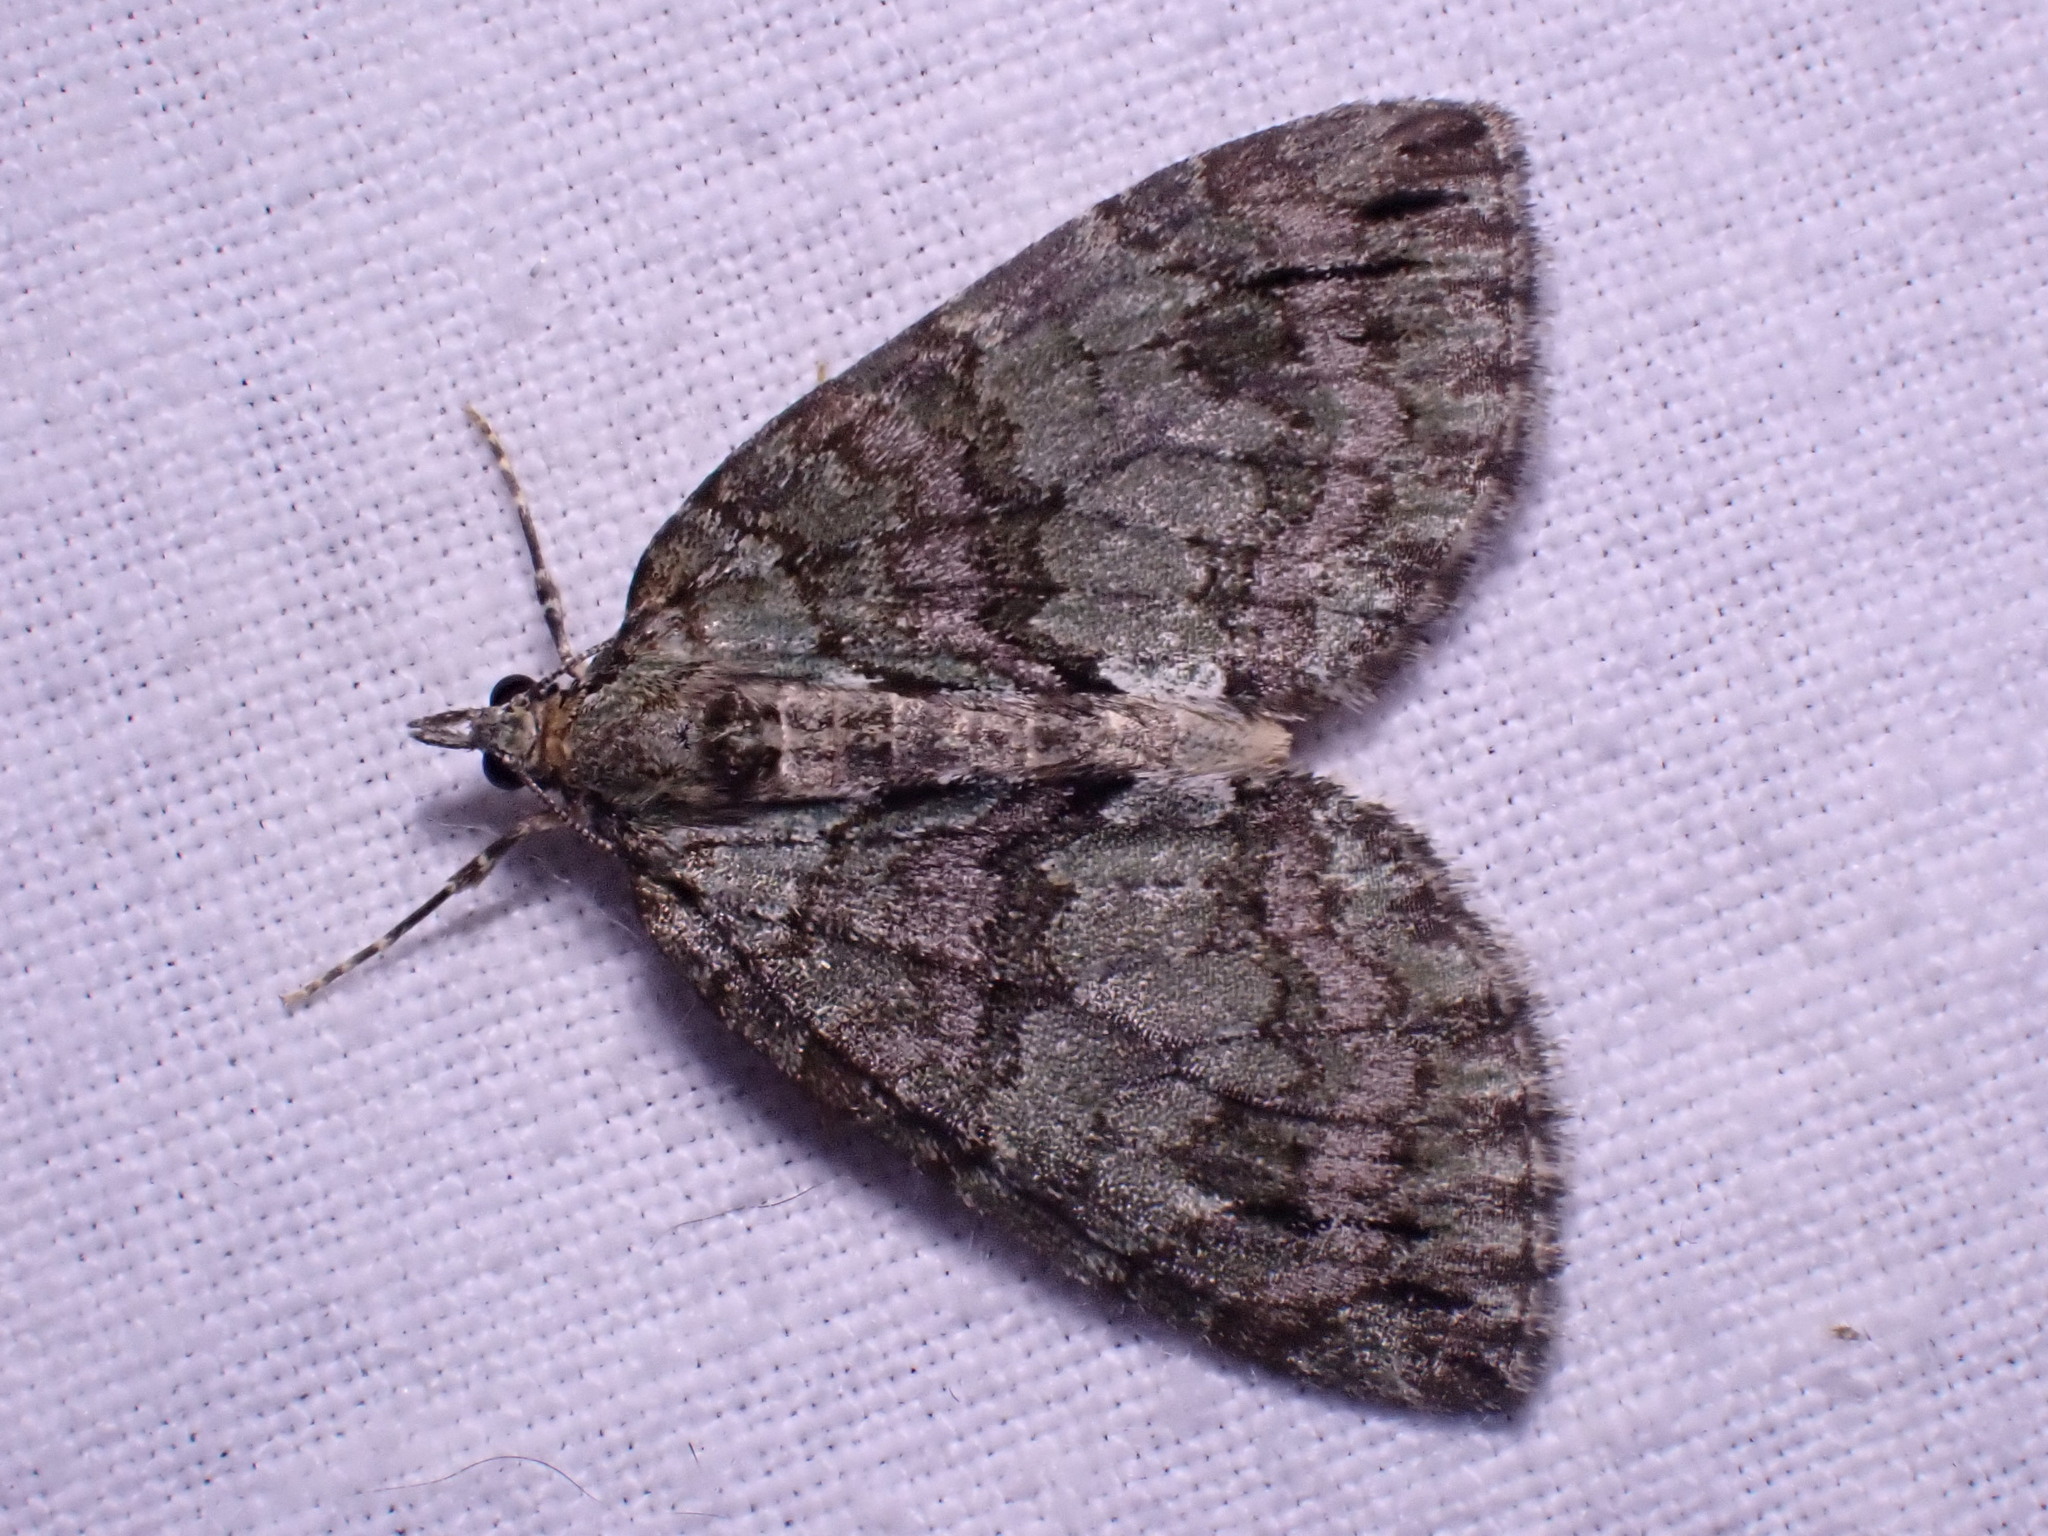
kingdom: Animalia
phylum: Arthropoda
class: Insecta
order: Lepidoptera
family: Geometridae
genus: Hydriomena
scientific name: Hydriomena impluviata
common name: May highflyer
